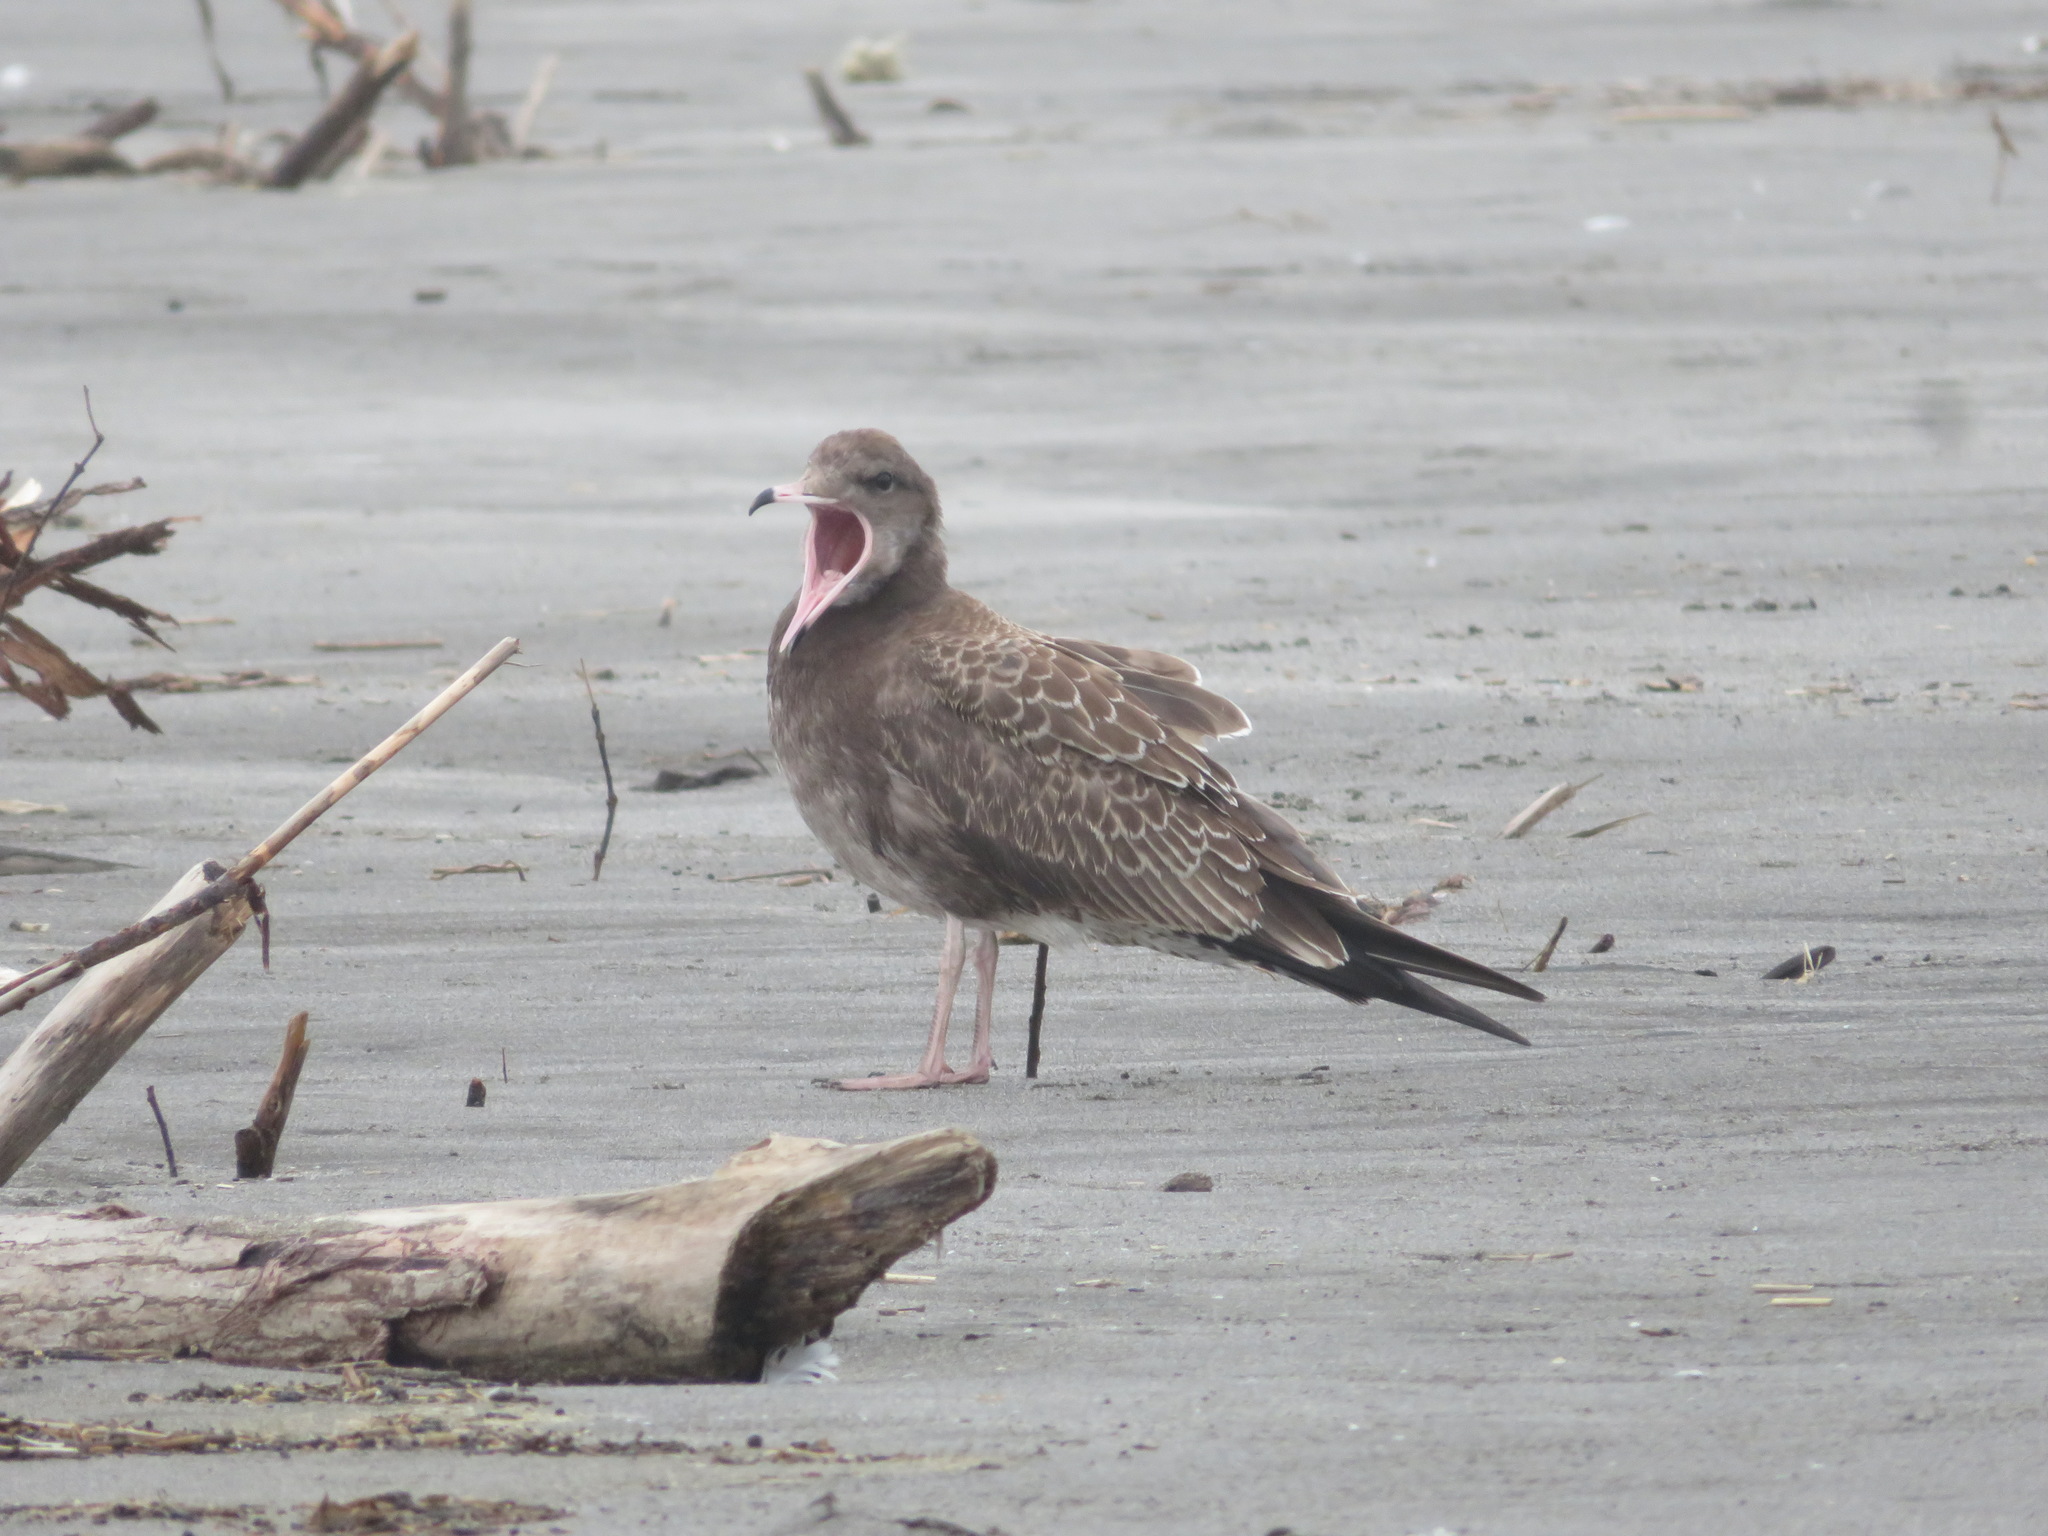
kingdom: Animalia
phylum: Chordata
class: Aves
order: Charadriiformes
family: Laridae
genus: Larus
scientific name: Larus crassirostris
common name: Black-tailed gull
